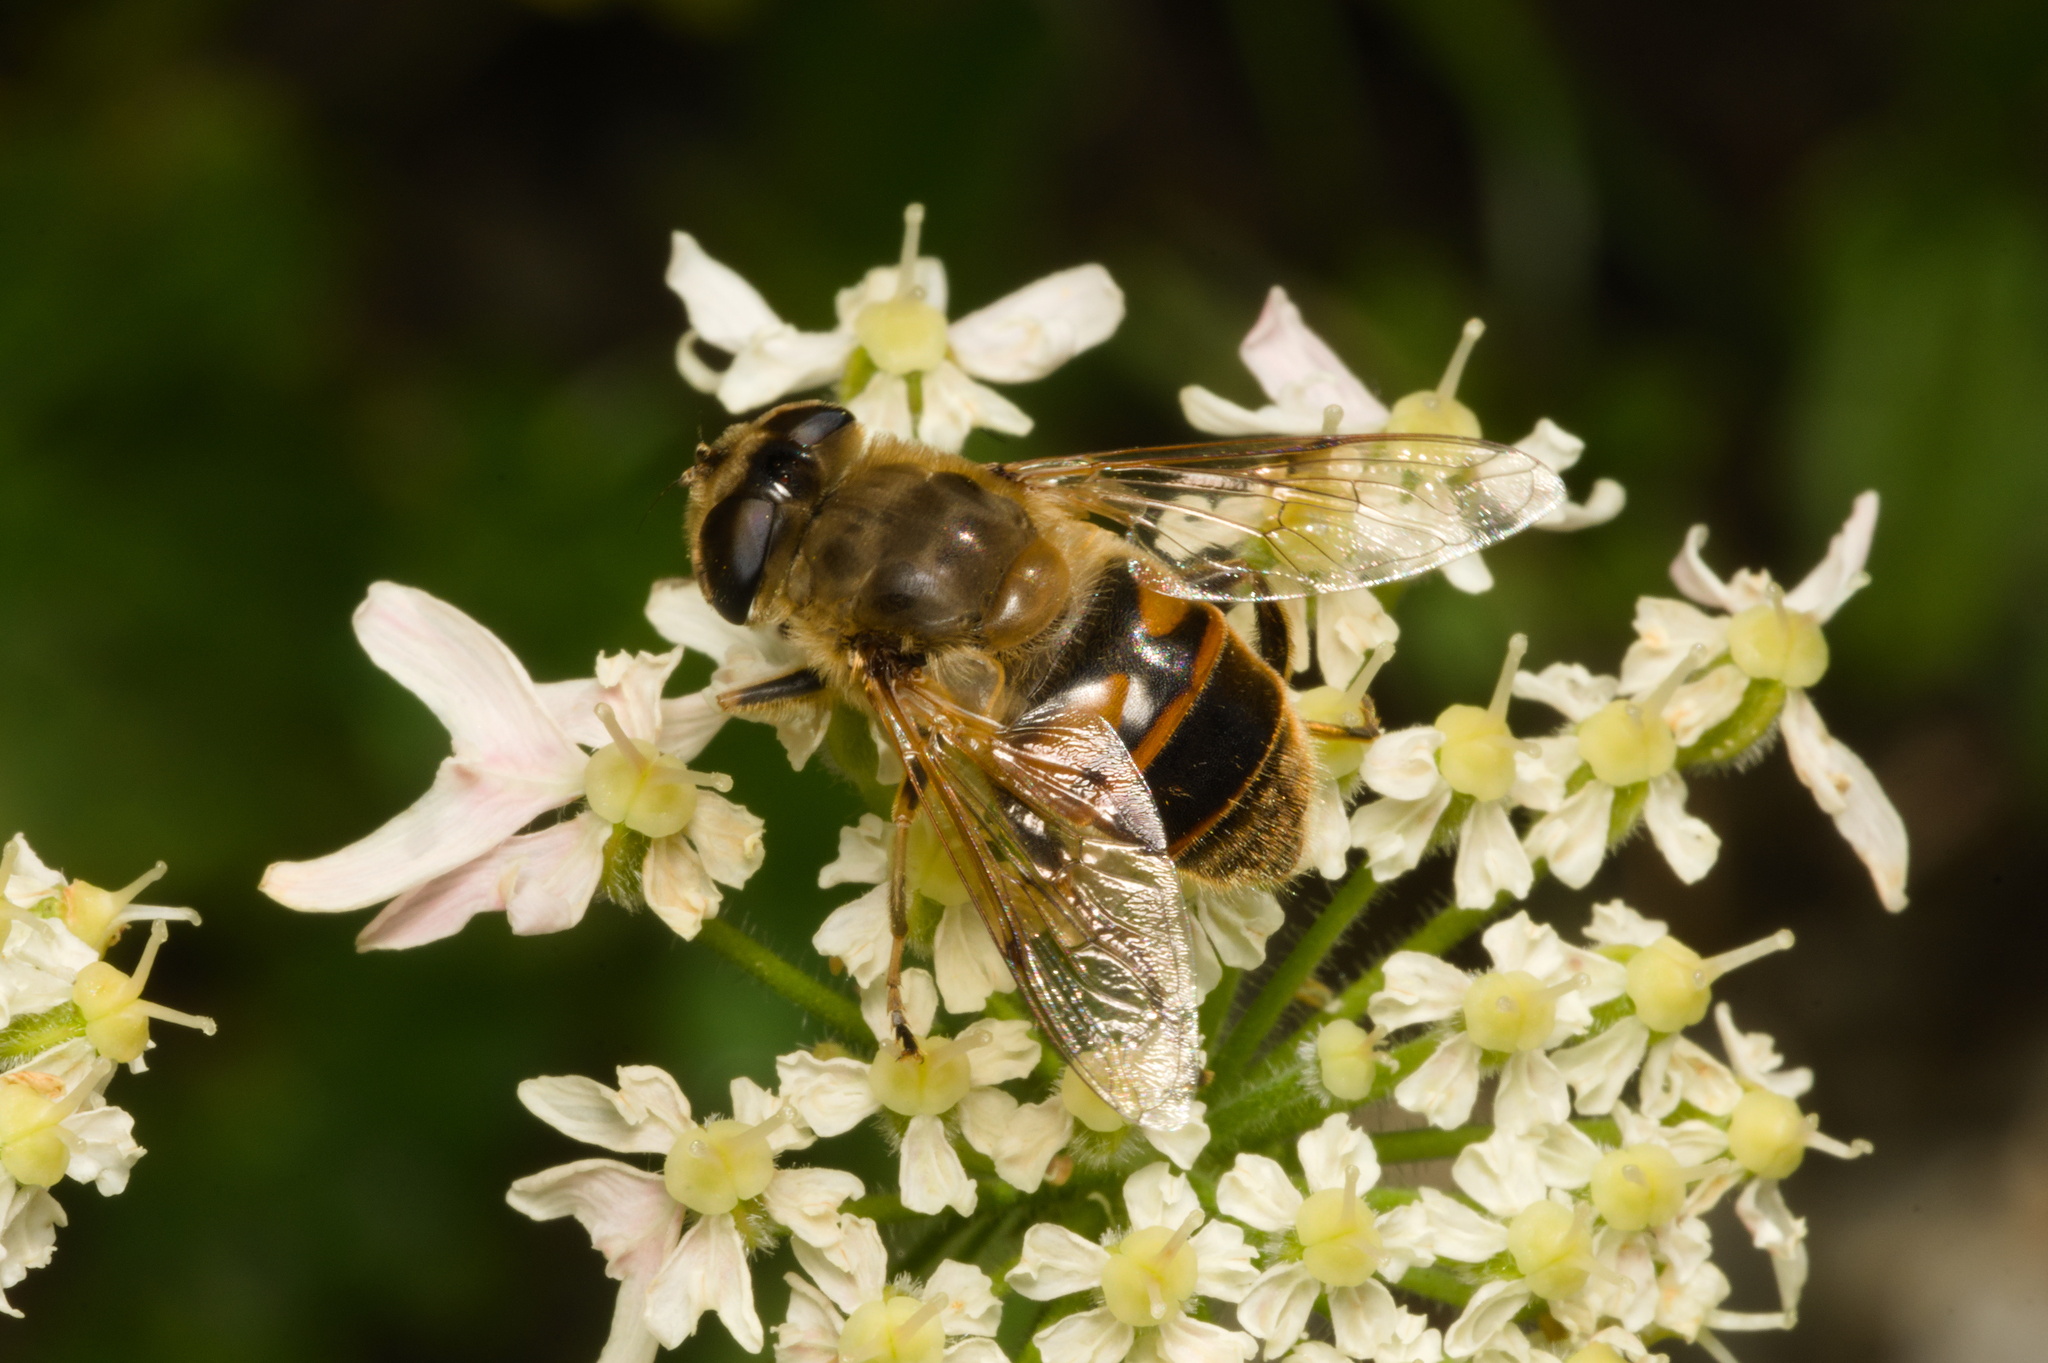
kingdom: Animalia
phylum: Arthropoda
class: Insecta
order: Diptera
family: Syrphidae
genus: Eristalis
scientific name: Eristalis tenax
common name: Drone fly
